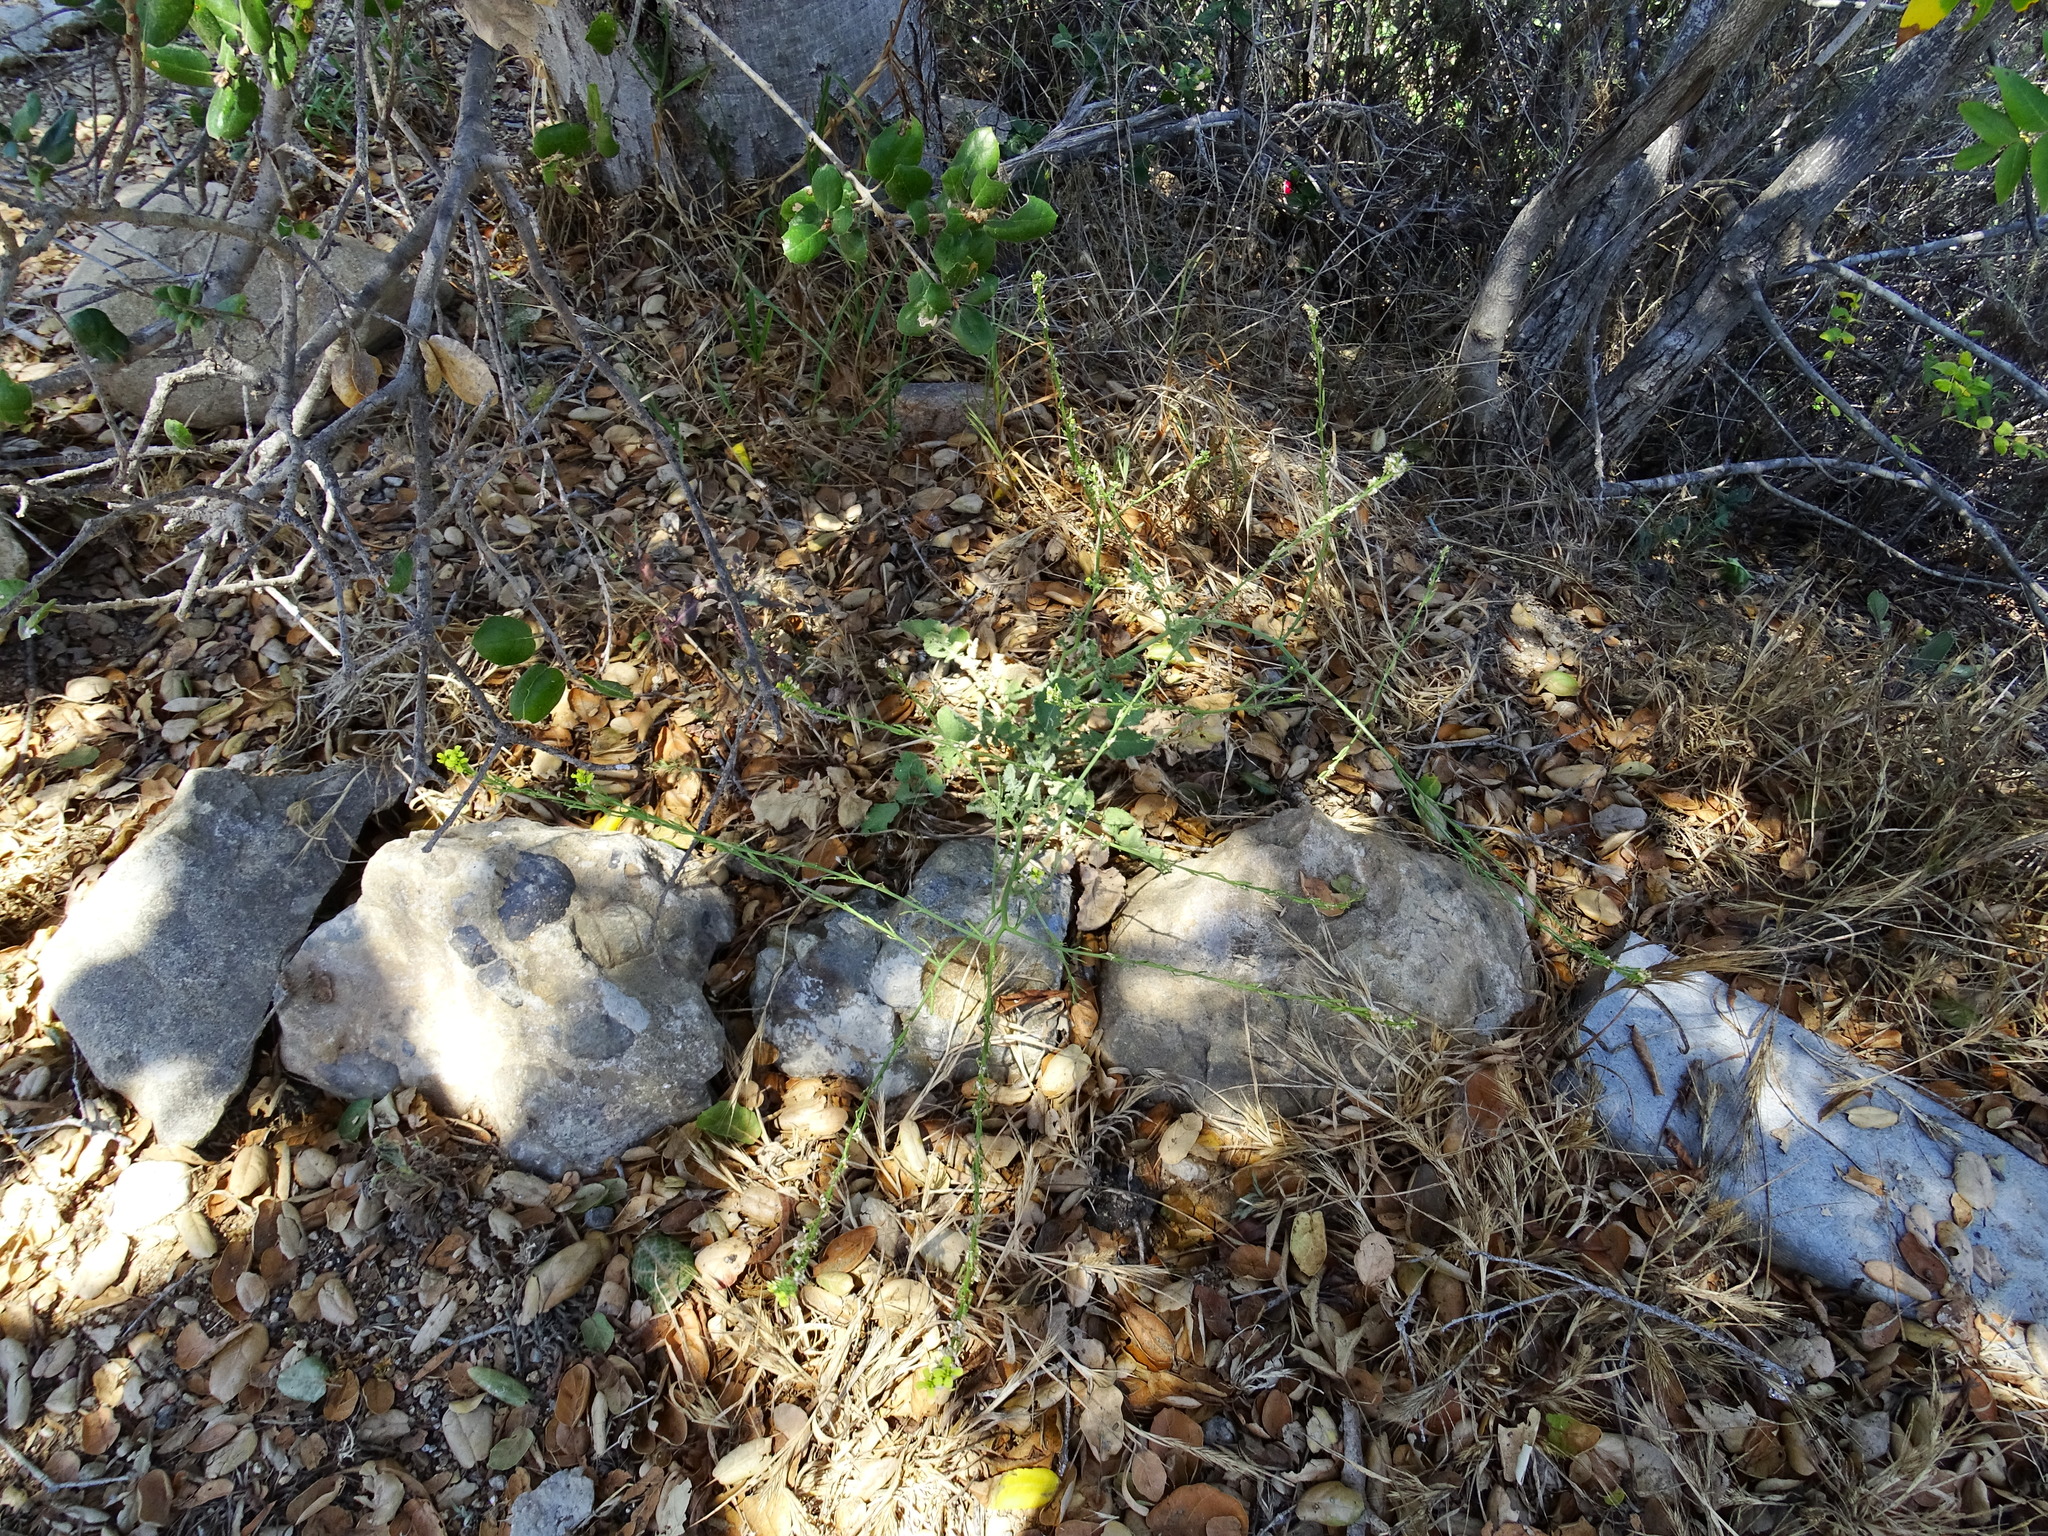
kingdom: Plantae
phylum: Tracheophyta
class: Magnoliopsida
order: Brassicales
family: Brassicaceae
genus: Hirschfeldia
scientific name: Hirschfeldia incana
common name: Hoary mustard
